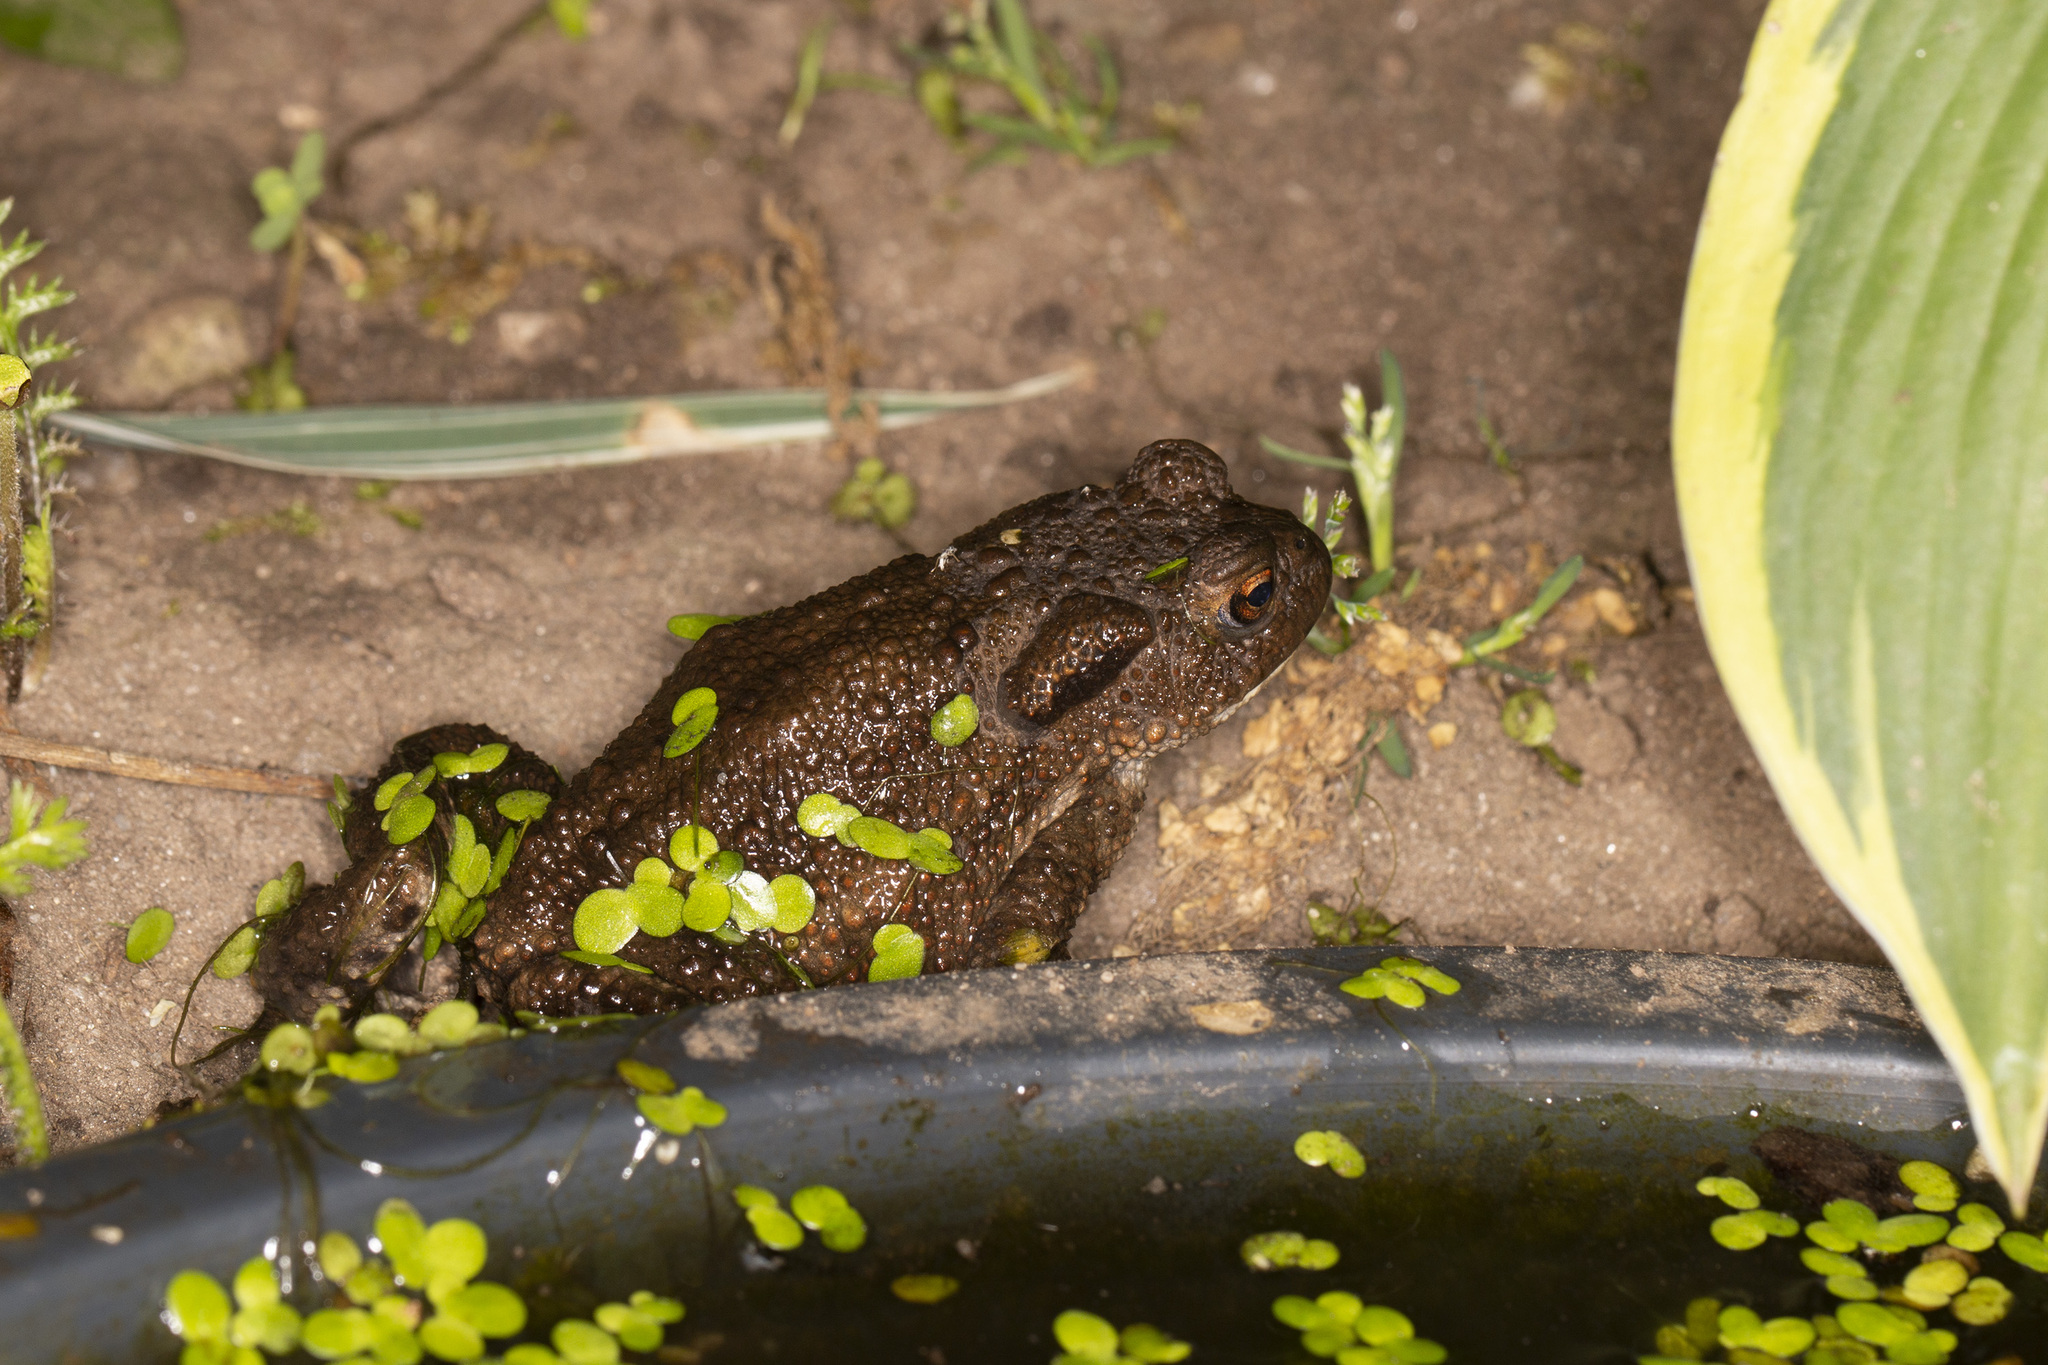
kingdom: Animalia
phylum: Chordata
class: Amphibia
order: Anura
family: Bufonidae
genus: Bufo
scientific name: Bufo bufo
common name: Common toad
